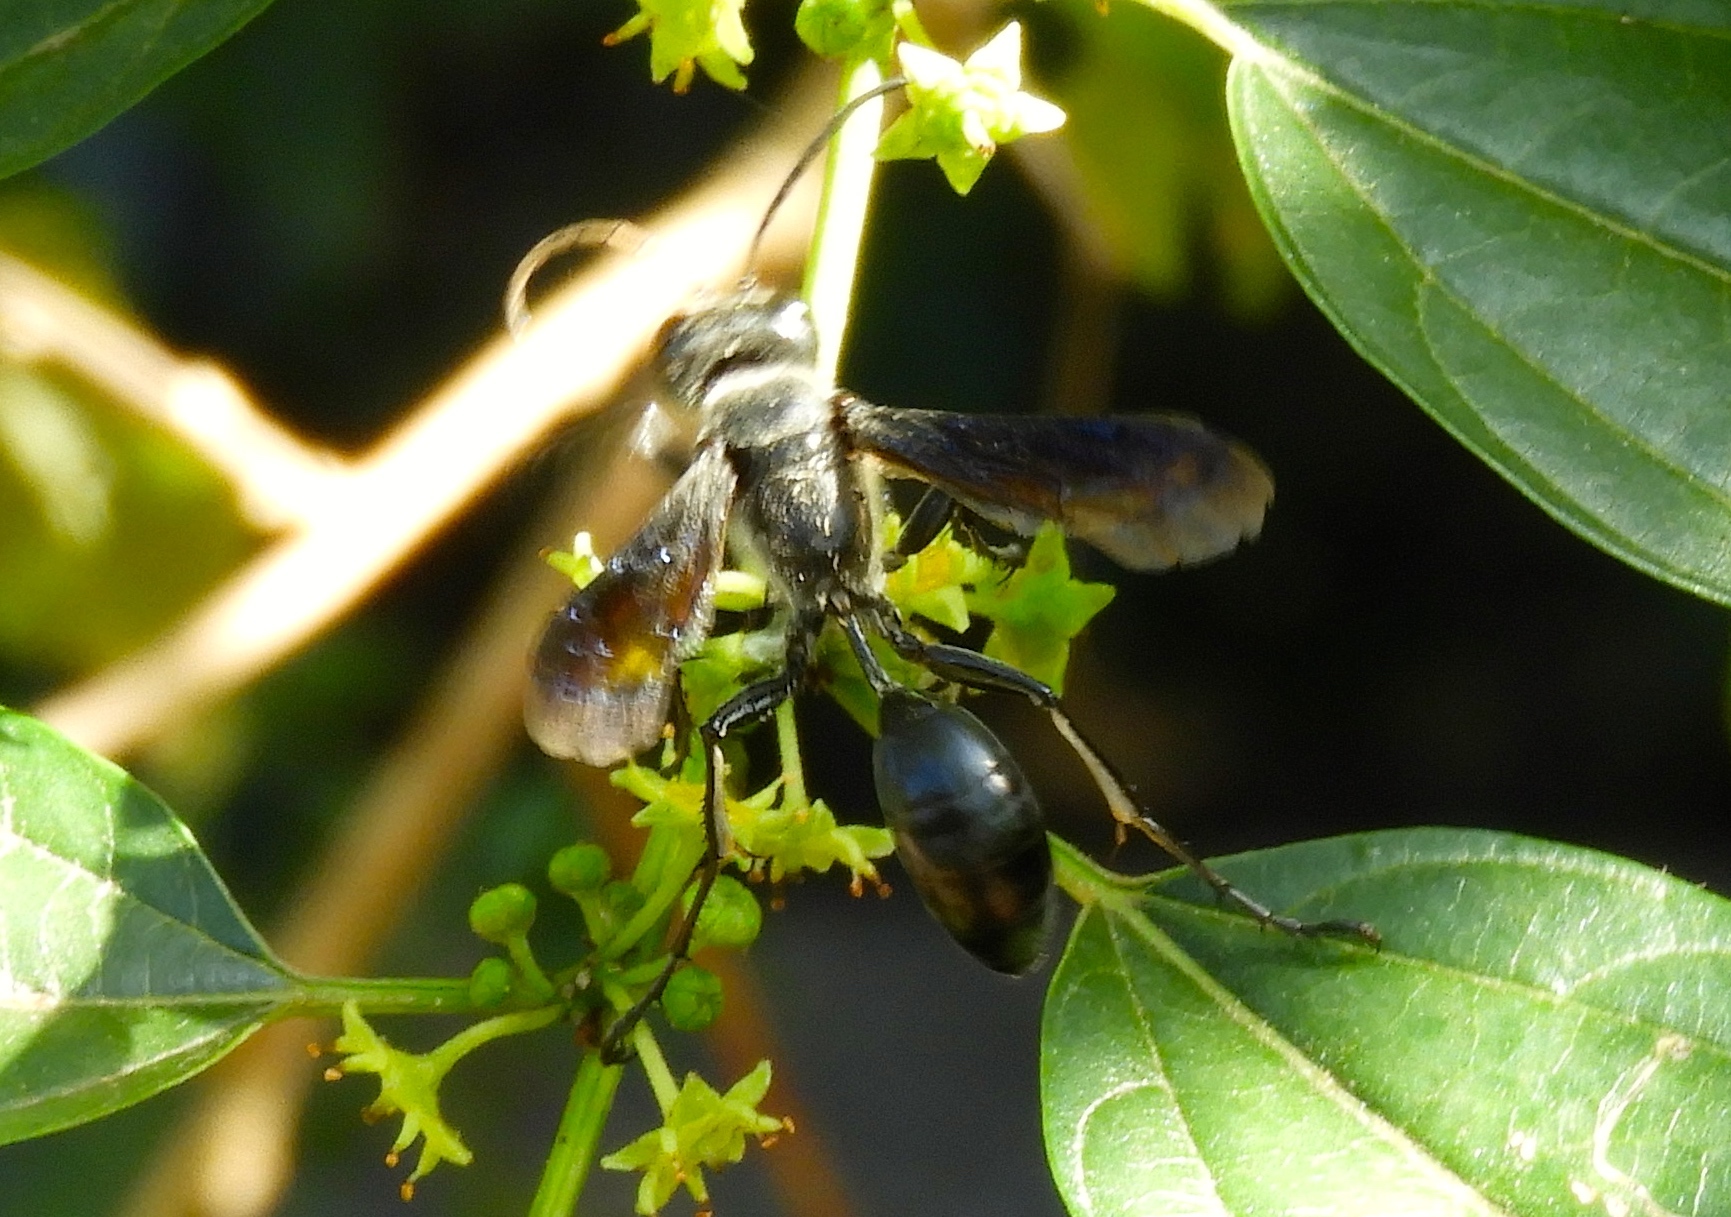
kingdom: Animalia
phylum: Arthropoda
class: Insecta
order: Hymenoptera
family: Sphecidae
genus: Isodontia
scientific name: Isodontia
